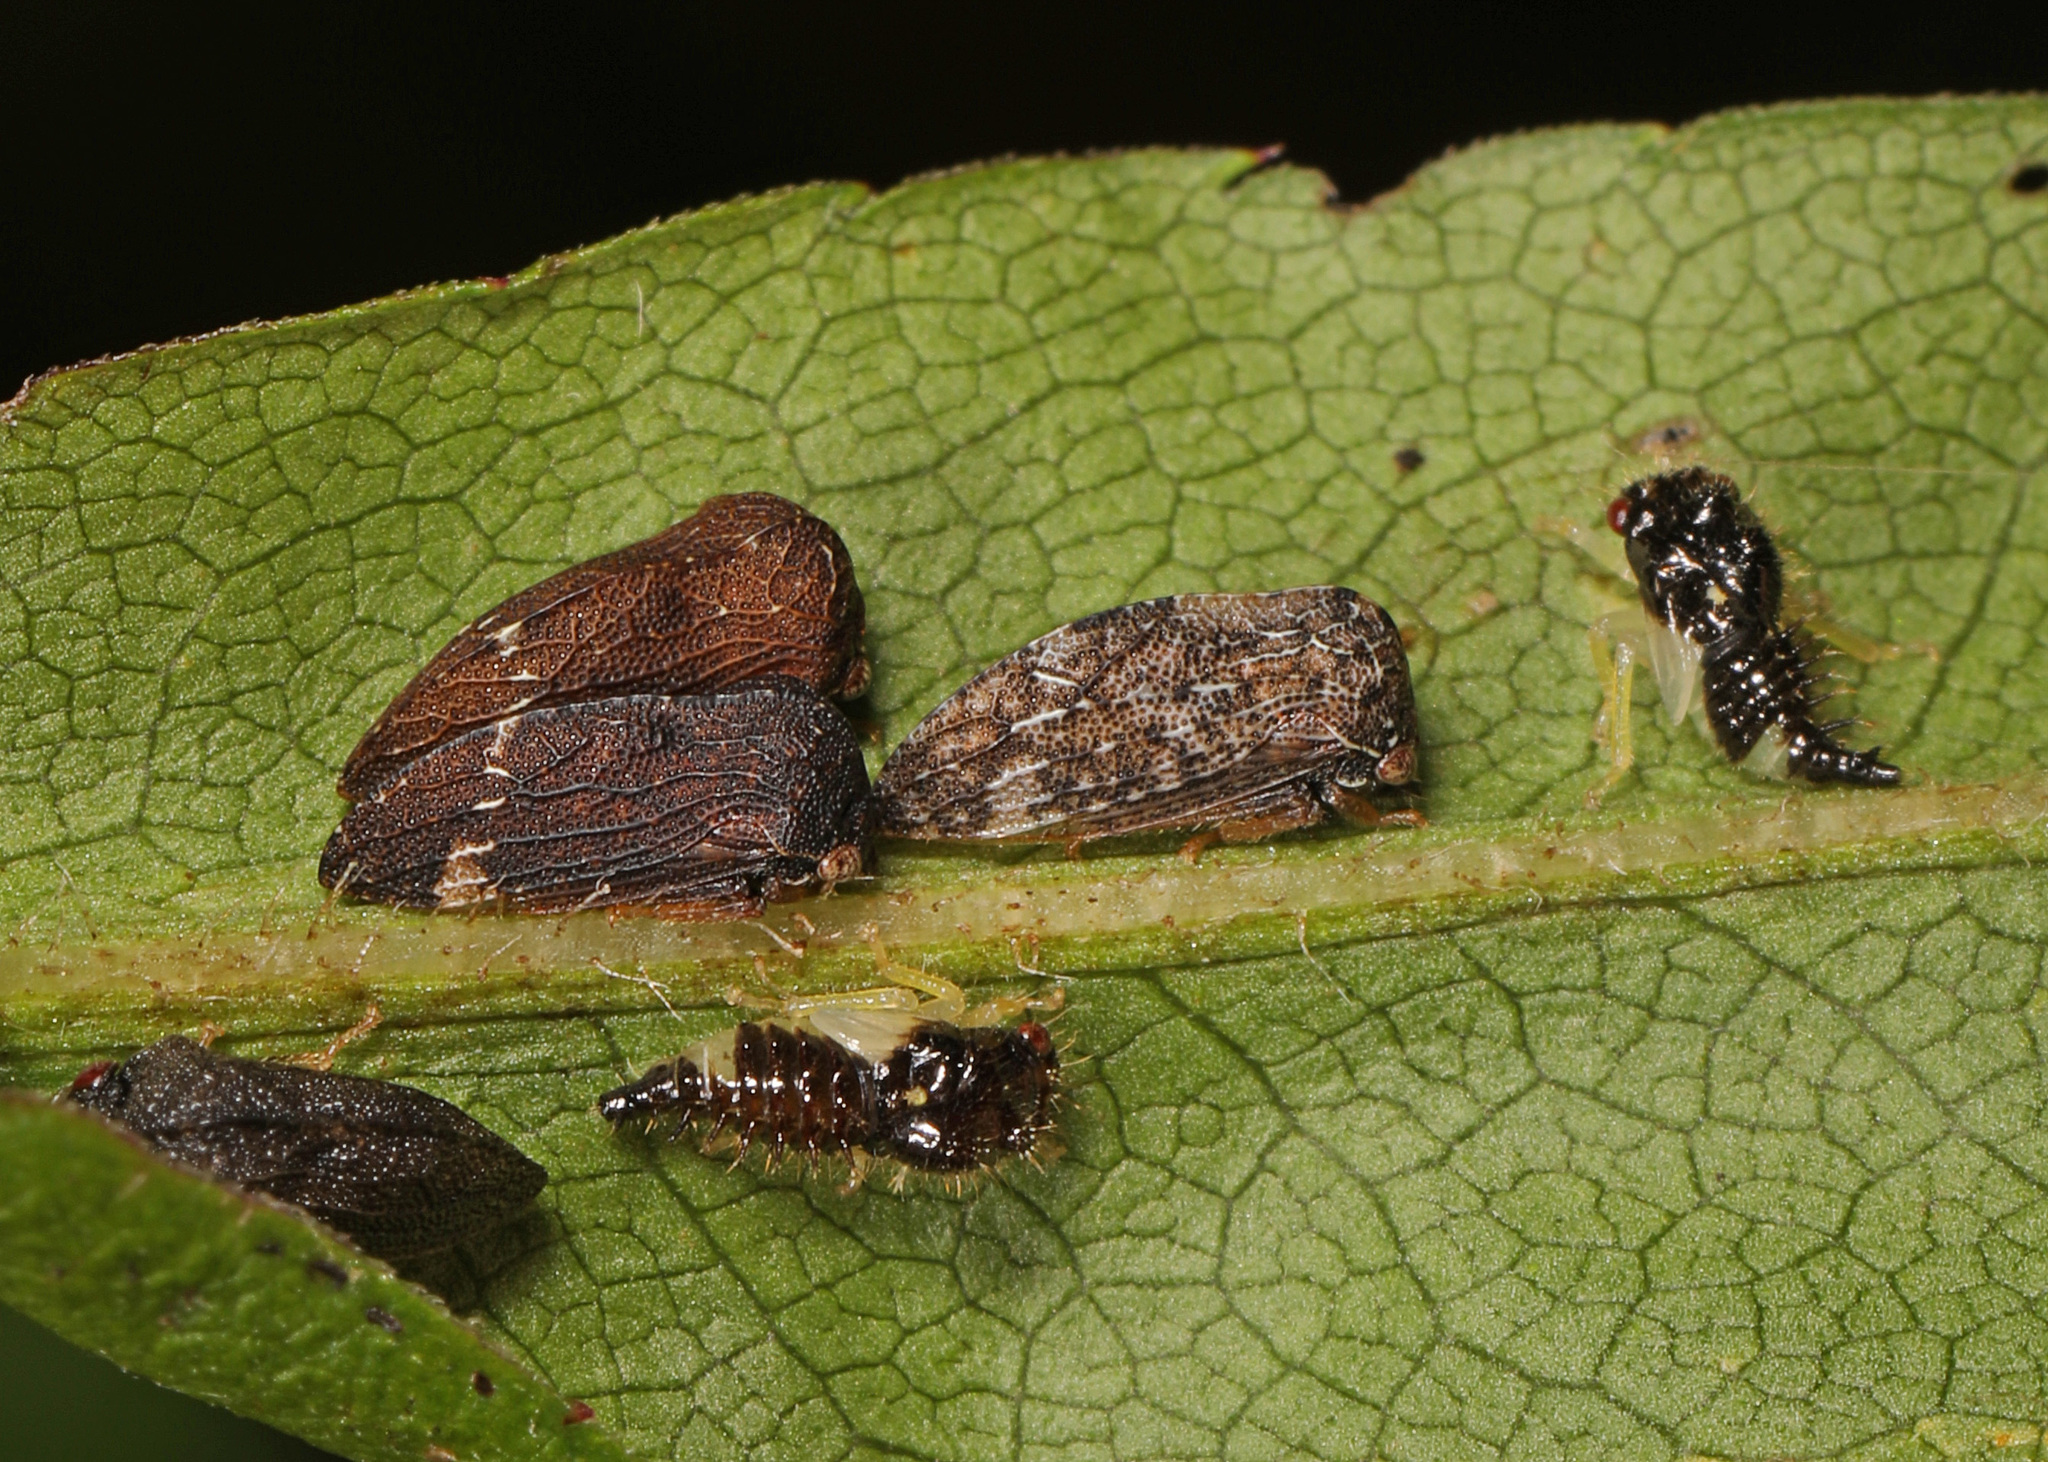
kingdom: Animalia
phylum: Arthropoda
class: Insecta
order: Hemiptera
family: Membracidae
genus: Publilia
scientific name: Publilia concava
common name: Aster treehopper
